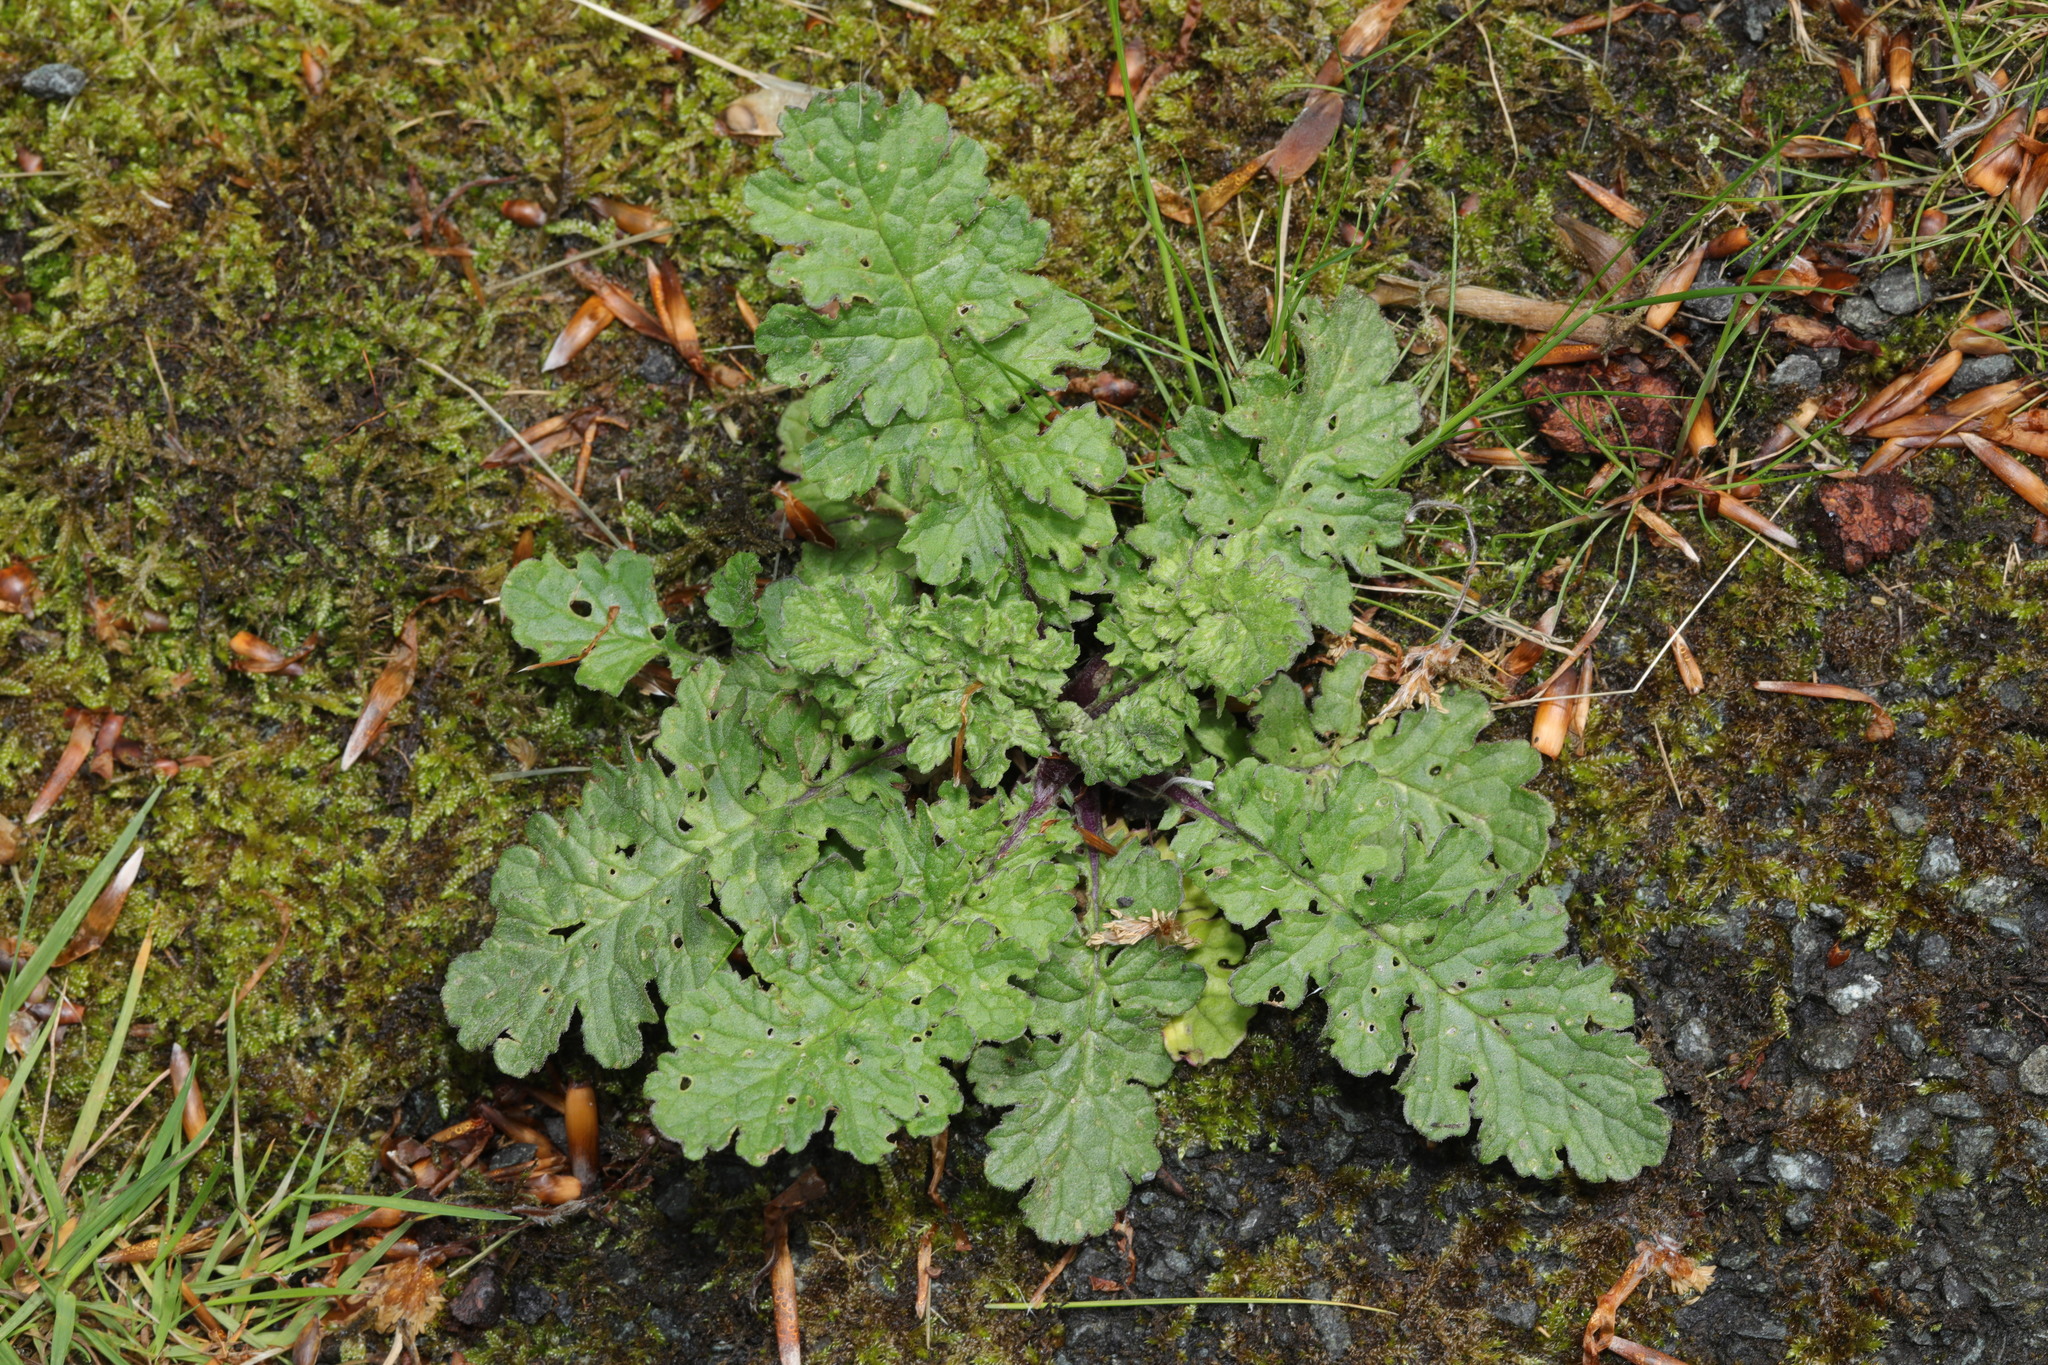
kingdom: Plantae
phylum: Tracheophyta
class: Magnoliopsida
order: Asterales
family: Asteraceae
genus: Jacobaea
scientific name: Jacobaea vulgaris
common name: Stinking willie
